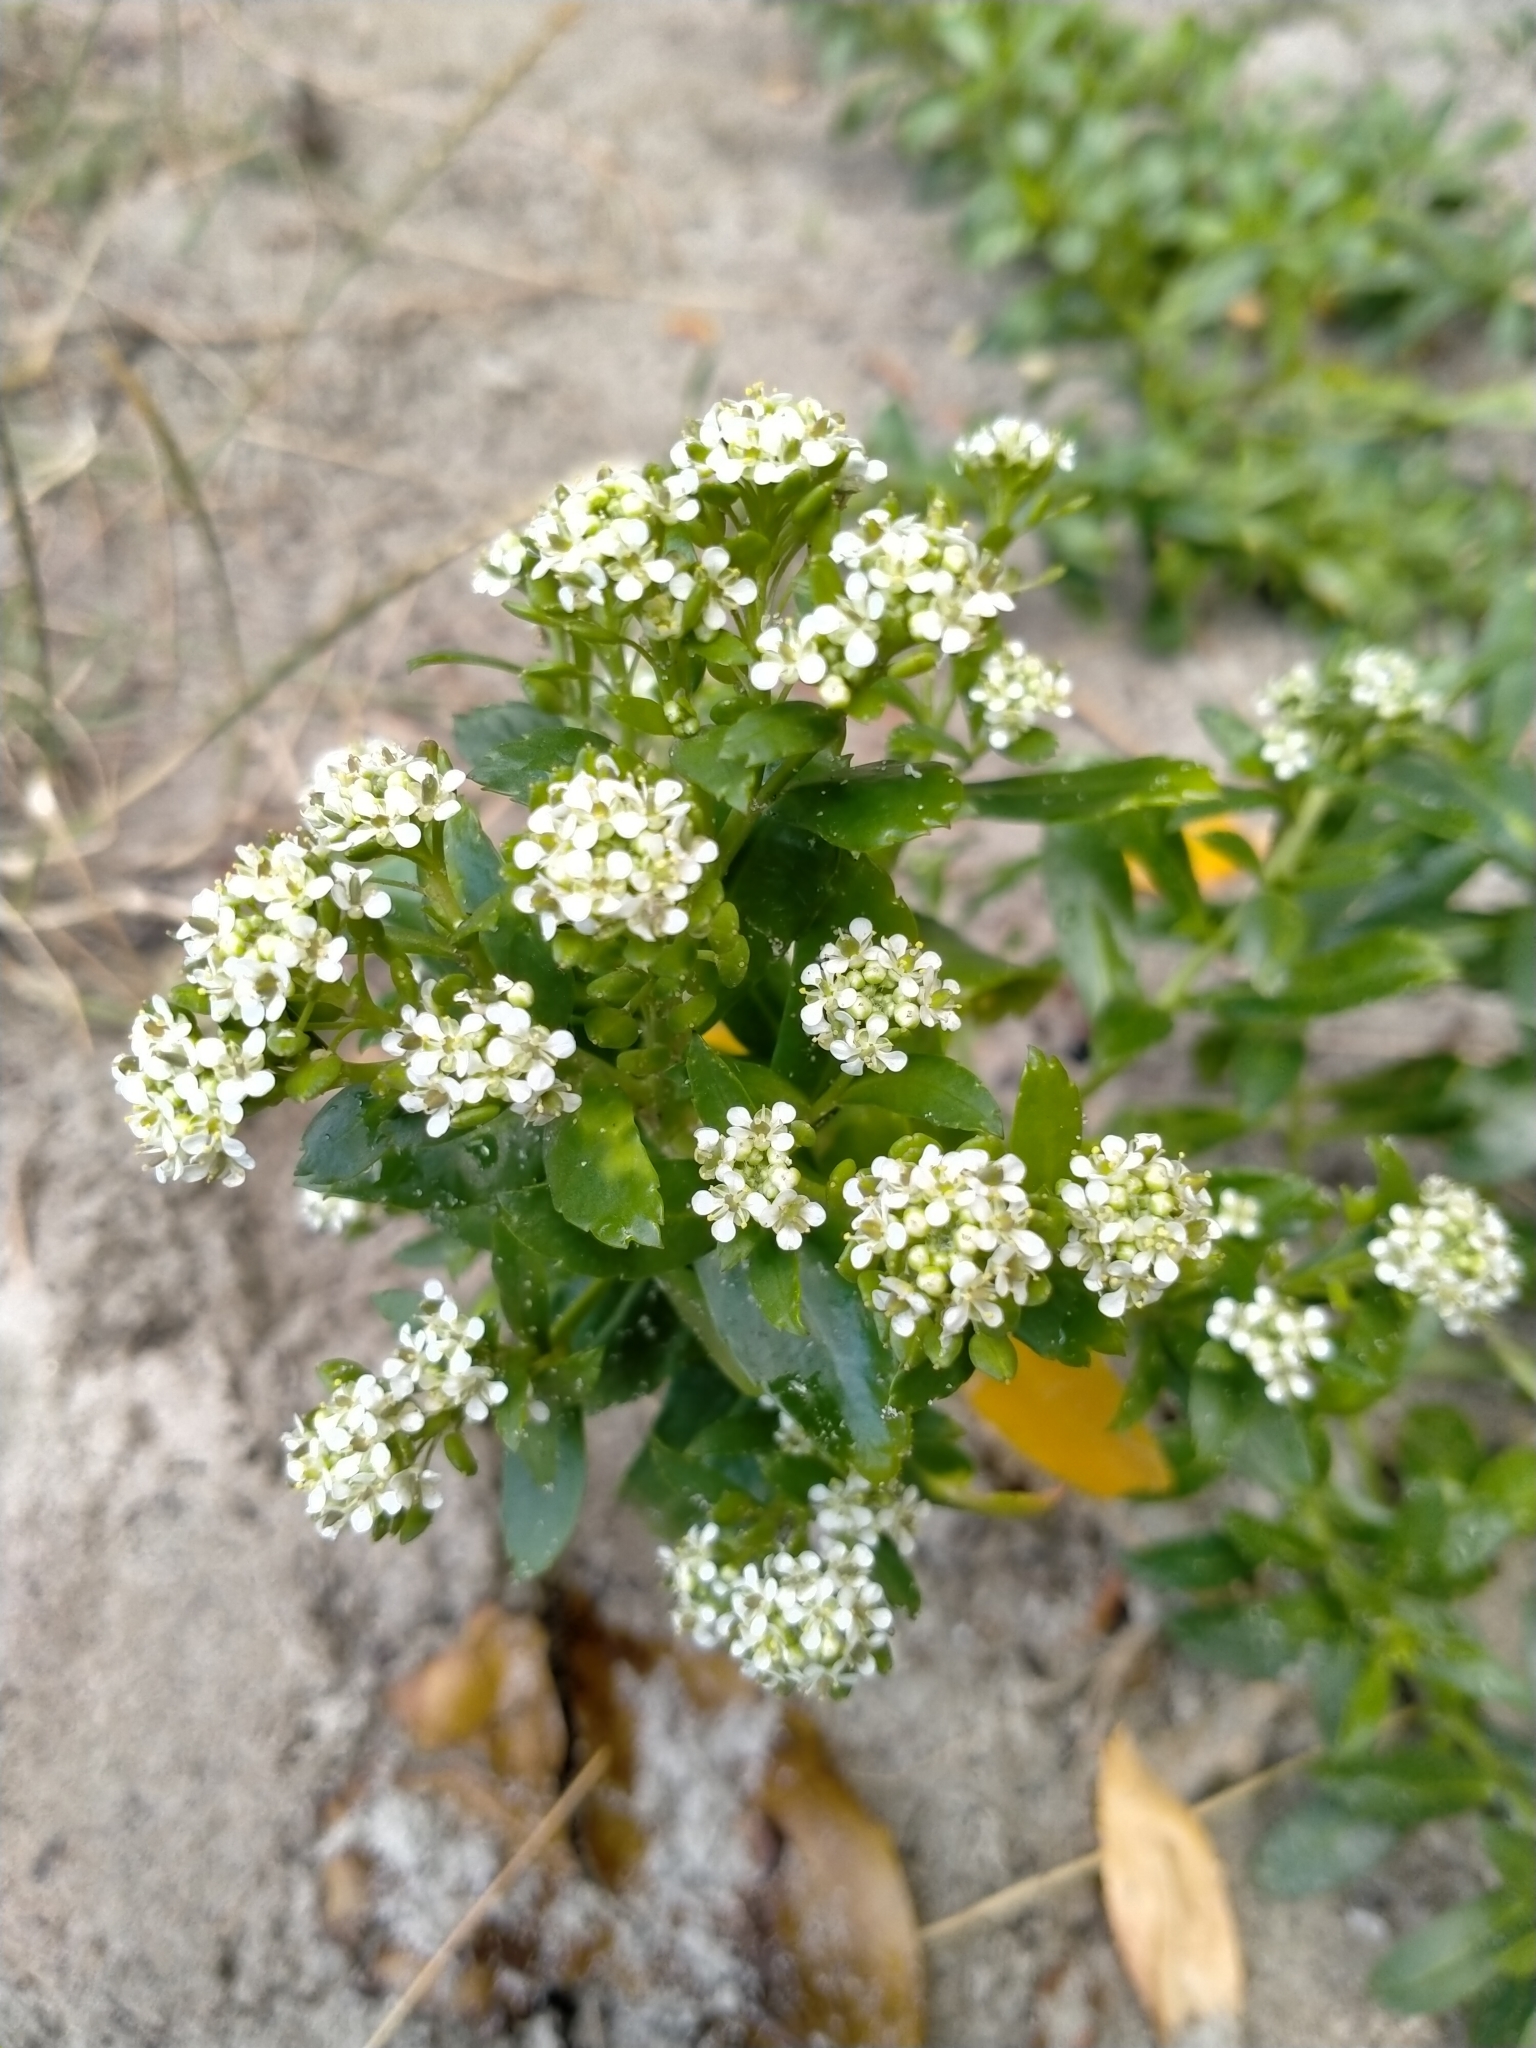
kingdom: Plantae
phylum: Tracheophyta
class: Magnoliopsida
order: Brassicales
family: Brassicaceae
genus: Lepidium
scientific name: Lepidium juvencum
